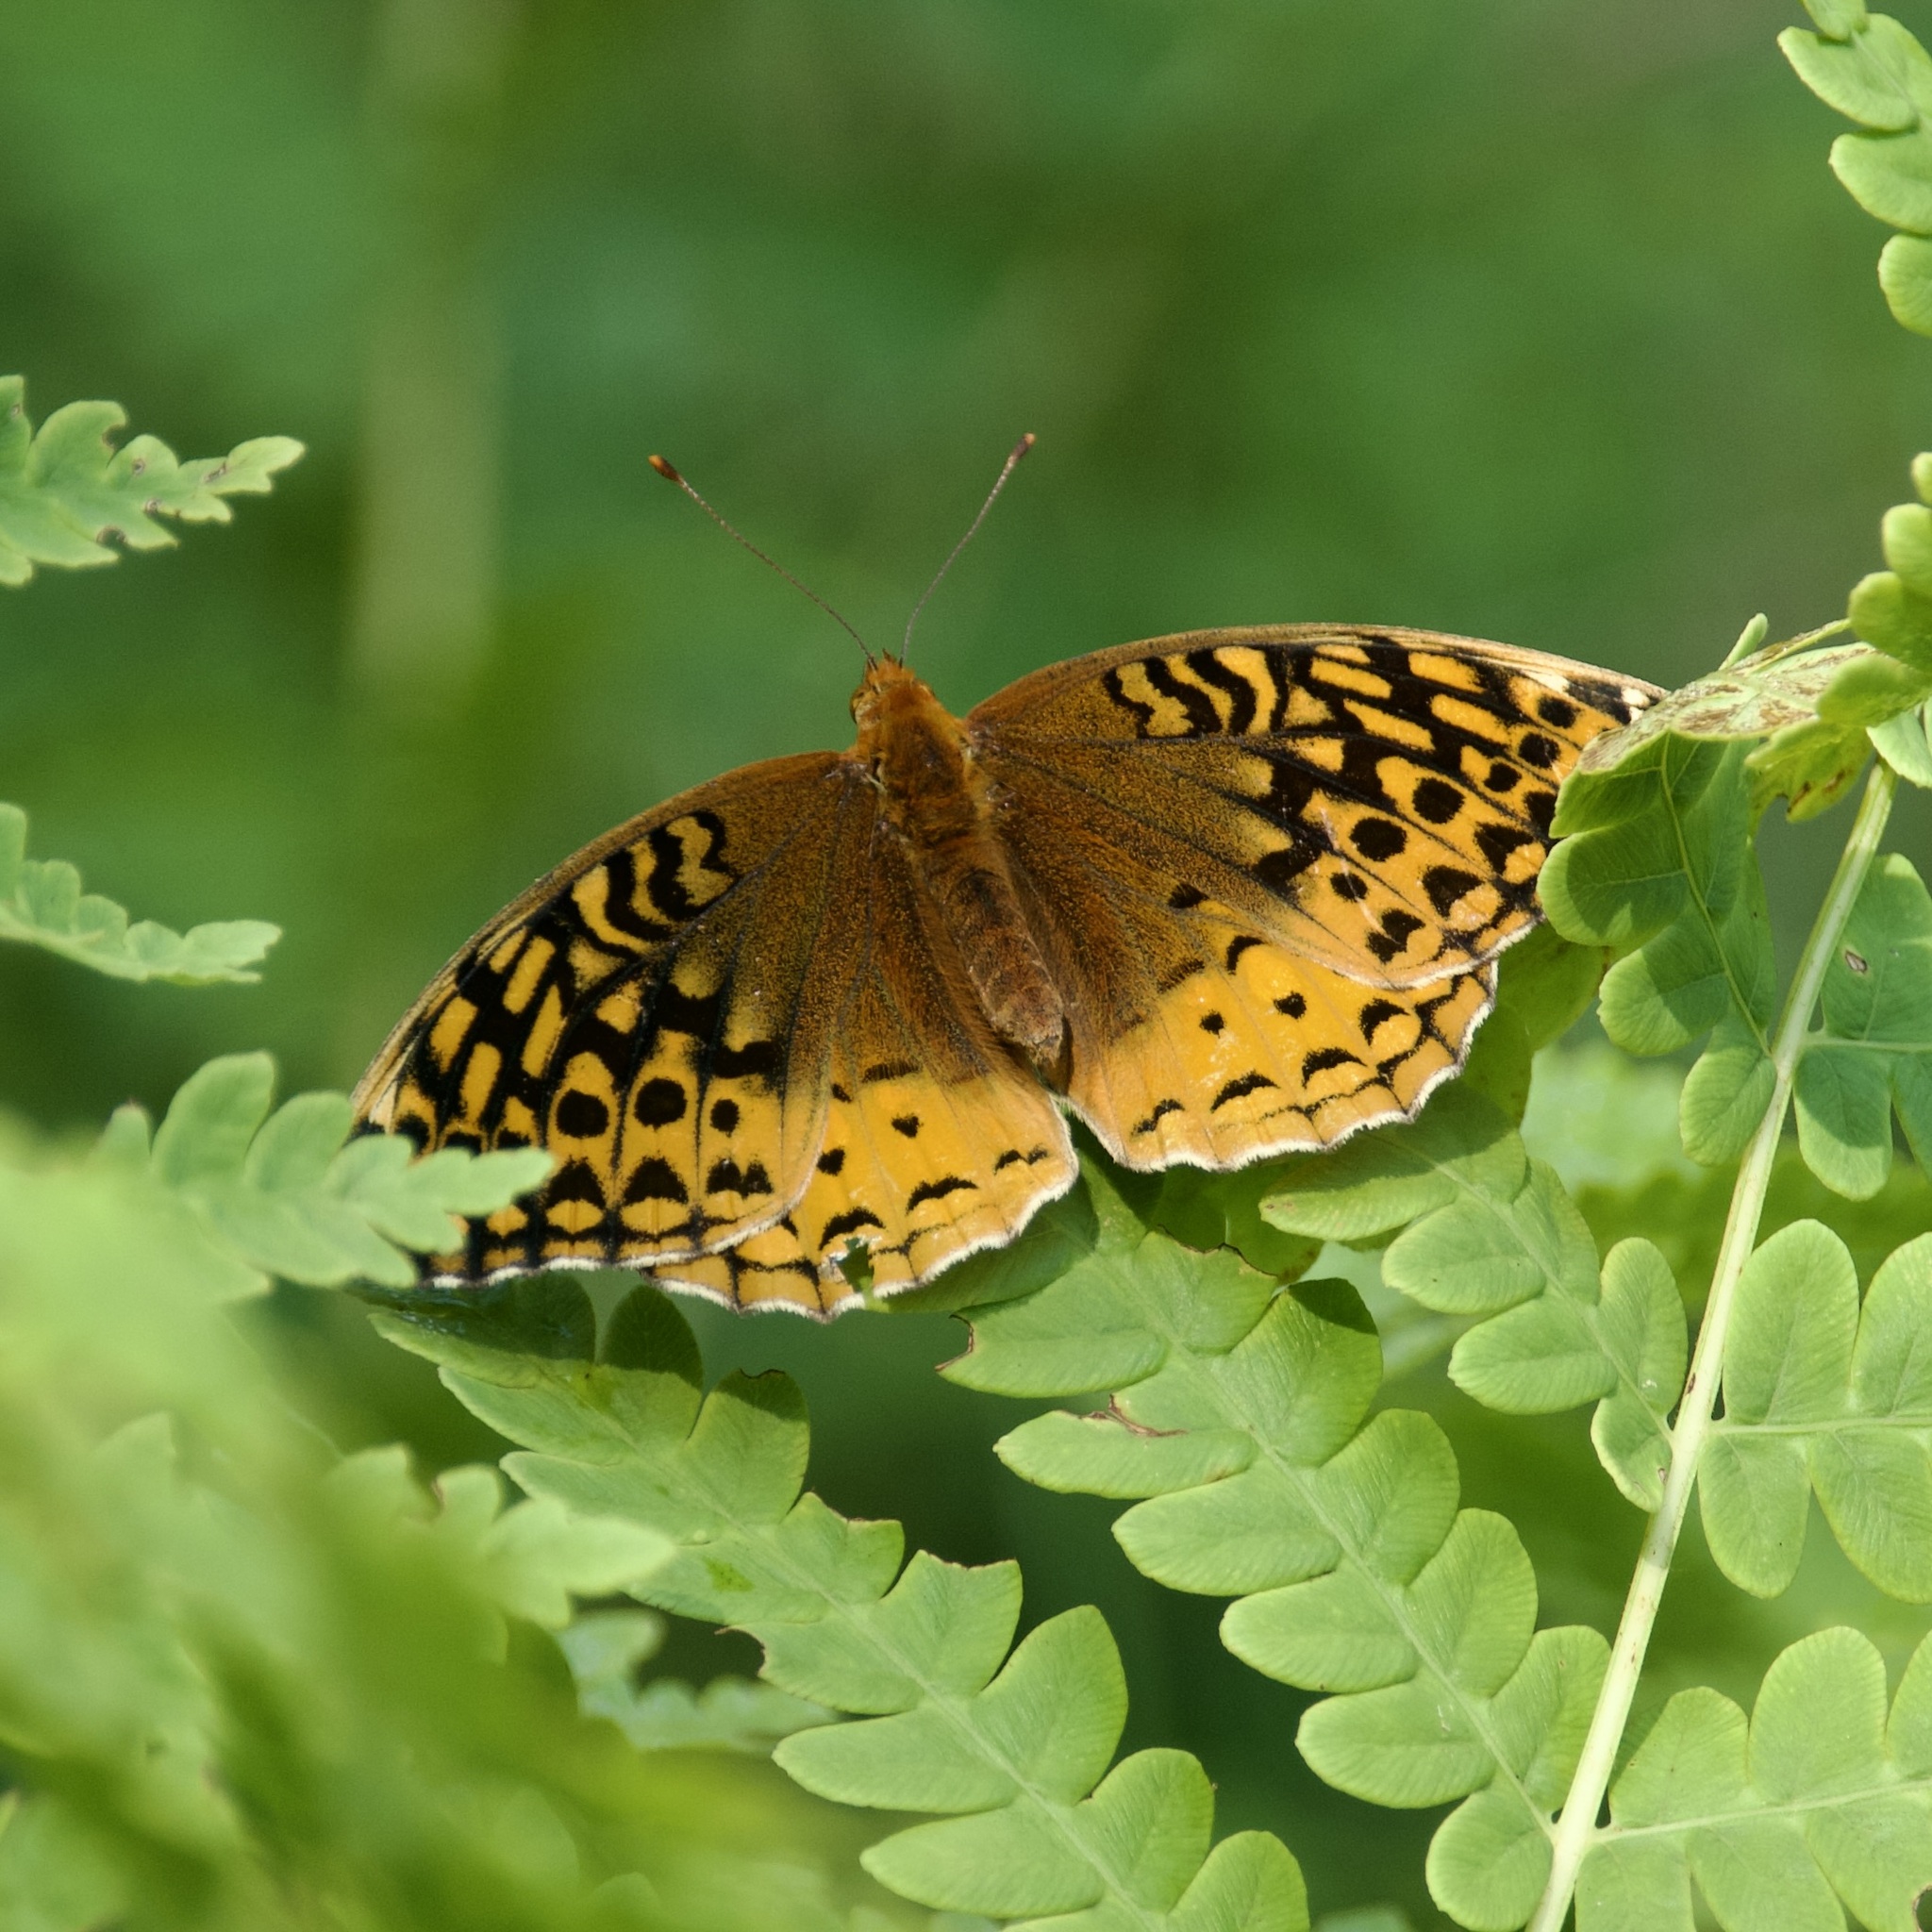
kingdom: Animalia
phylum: Arthropoda
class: Insecta
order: Lepidoptera
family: Nymphalidae
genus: Speyeria
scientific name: Speyeria cybele
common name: Great spangled fritillary
